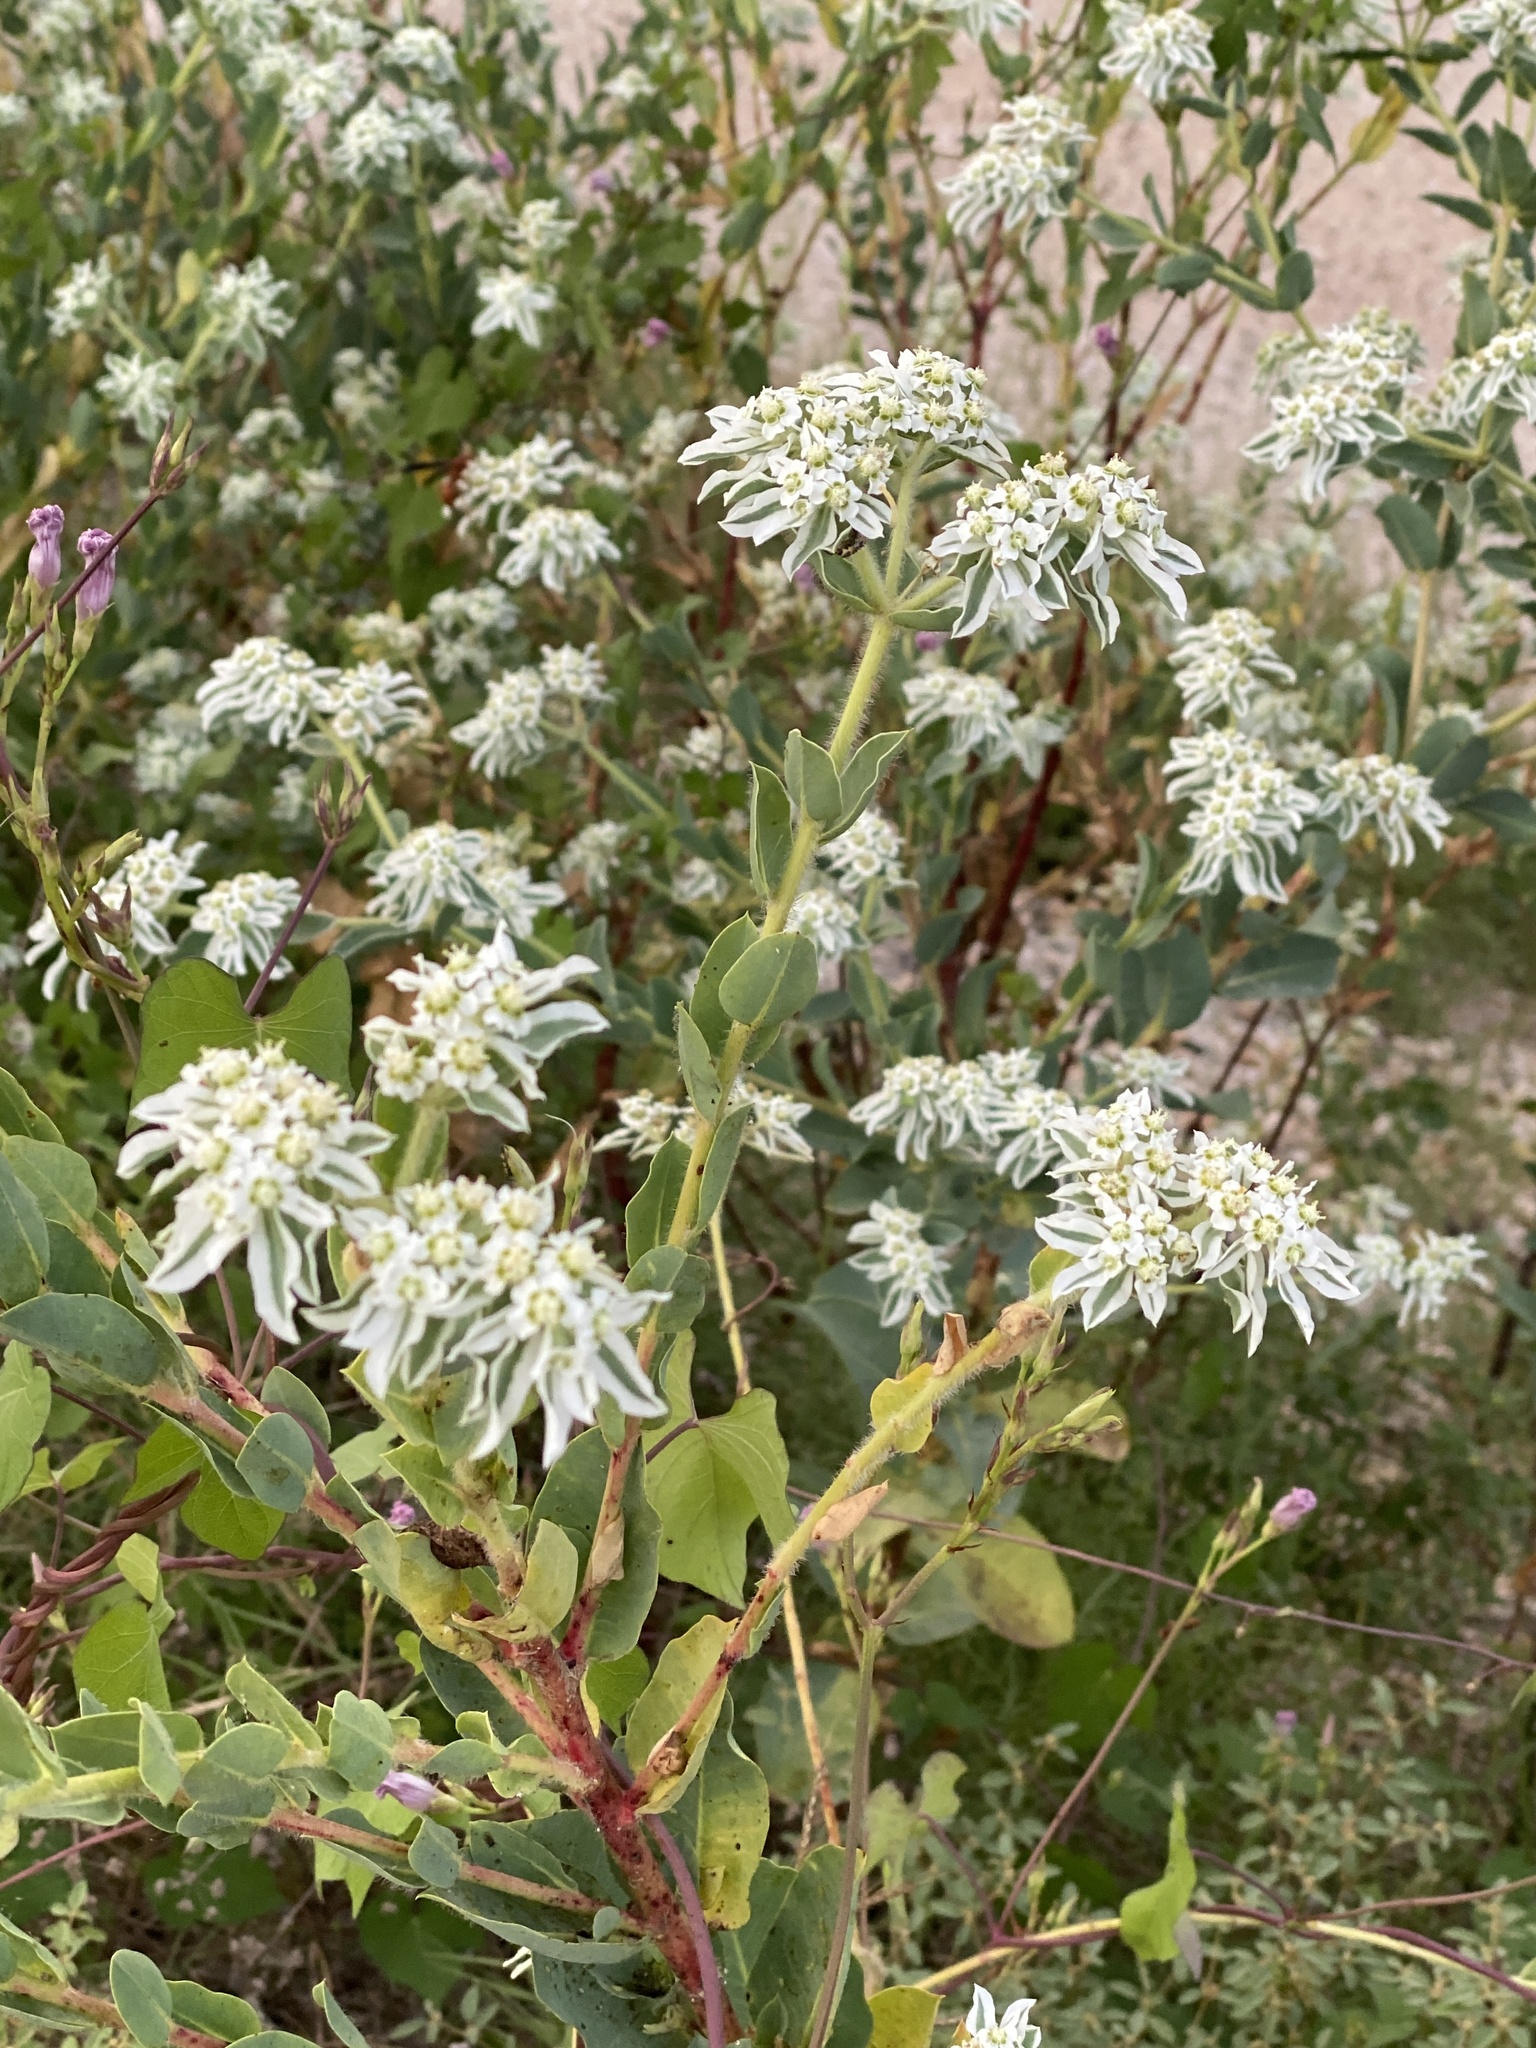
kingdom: Plantae
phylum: Tracheophyta
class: Magnoliopsida
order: Malpighiales
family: Euphorbiaceae
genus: Euphorbia
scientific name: Euphorbia marginata
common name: Ghostweed
